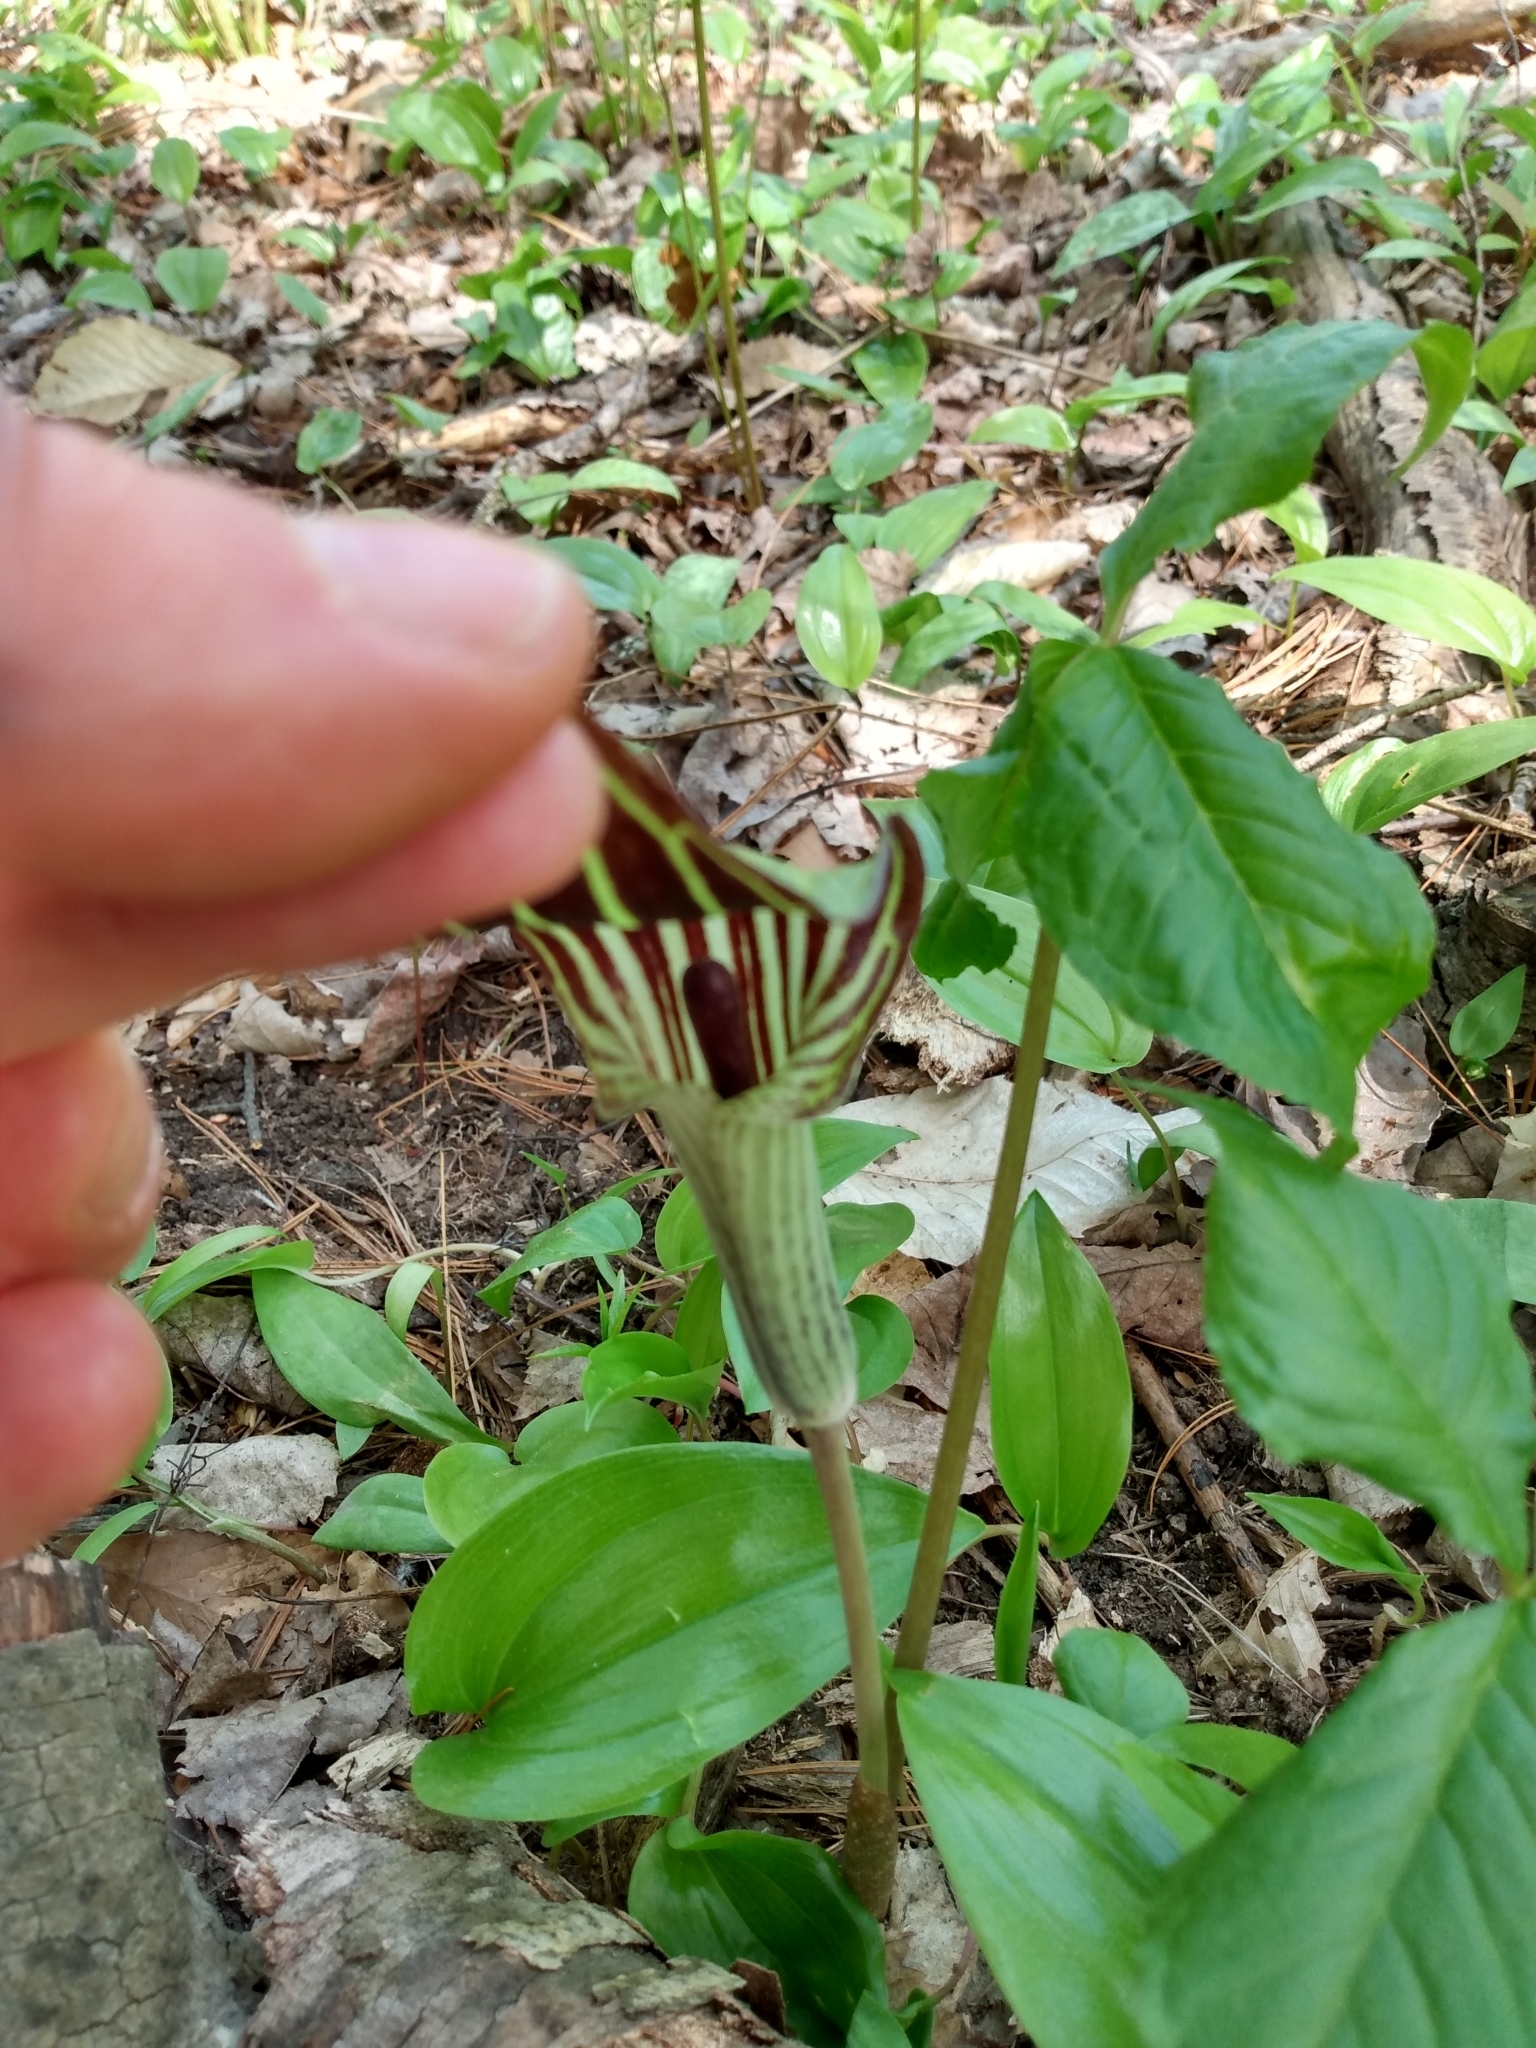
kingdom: Plantae
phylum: Tracheophyta
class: Liliopsida
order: Alismatales
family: Araceae
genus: Arisaema
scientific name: Arisaema triphyllum
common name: Jack-in-the-pulpit
